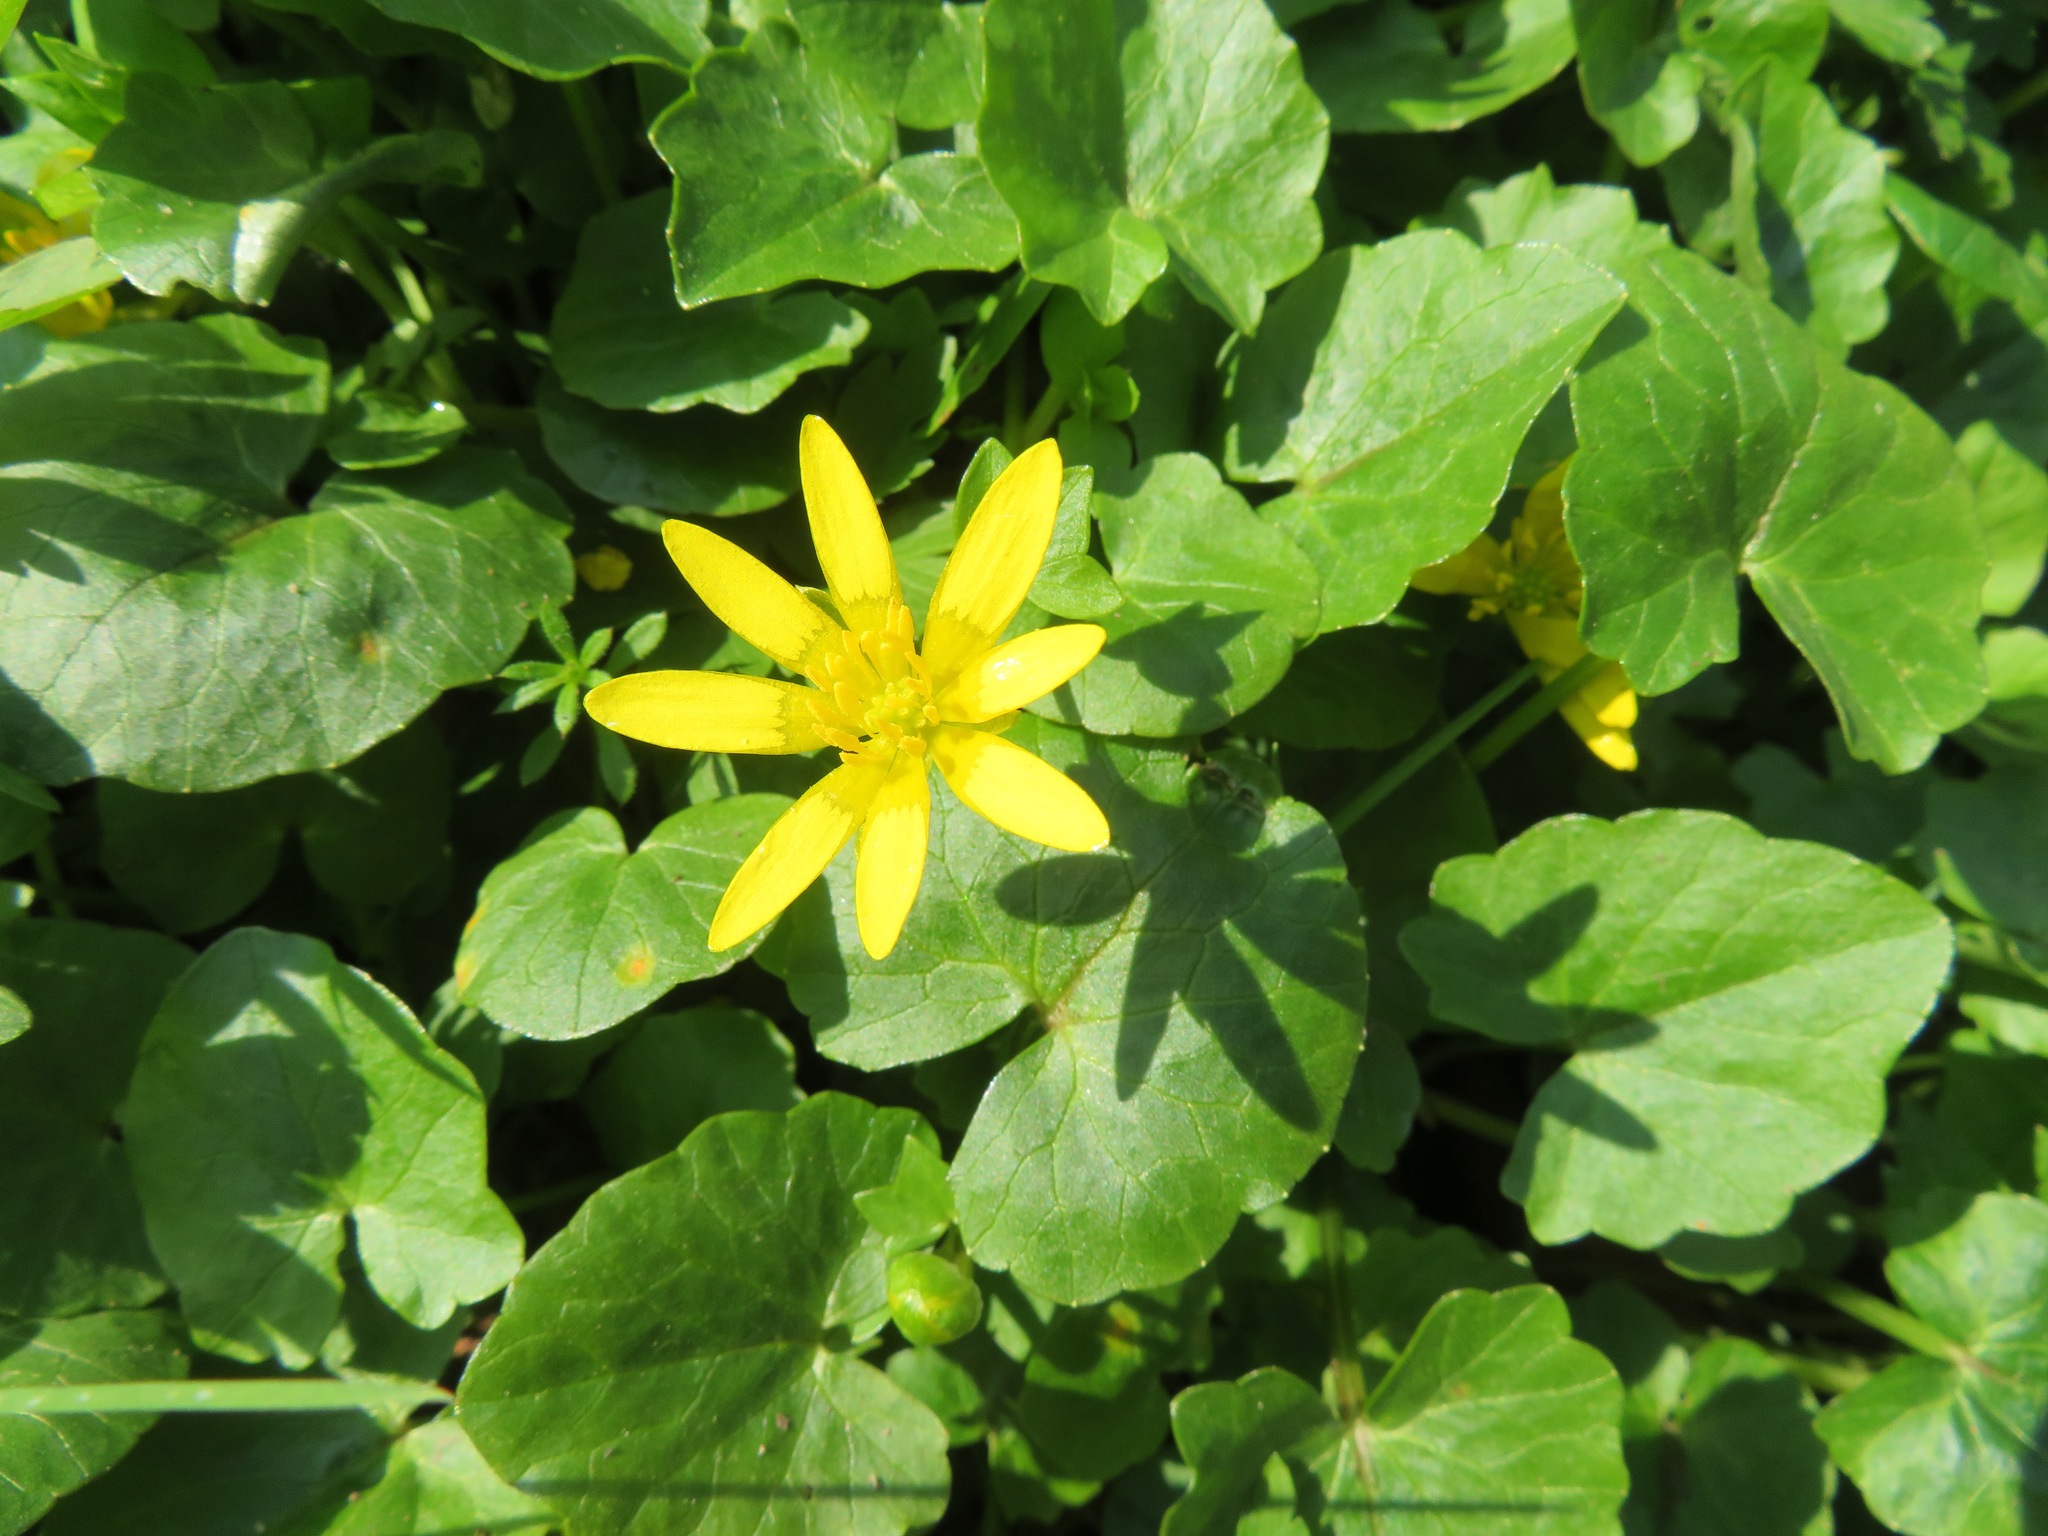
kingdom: Plantae
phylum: Tracheophyta
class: Magnoliopsida
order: Ranunculales
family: Ranunculaceae
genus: Ficaria
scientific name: Ficaria verna
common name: Lesser celandine
